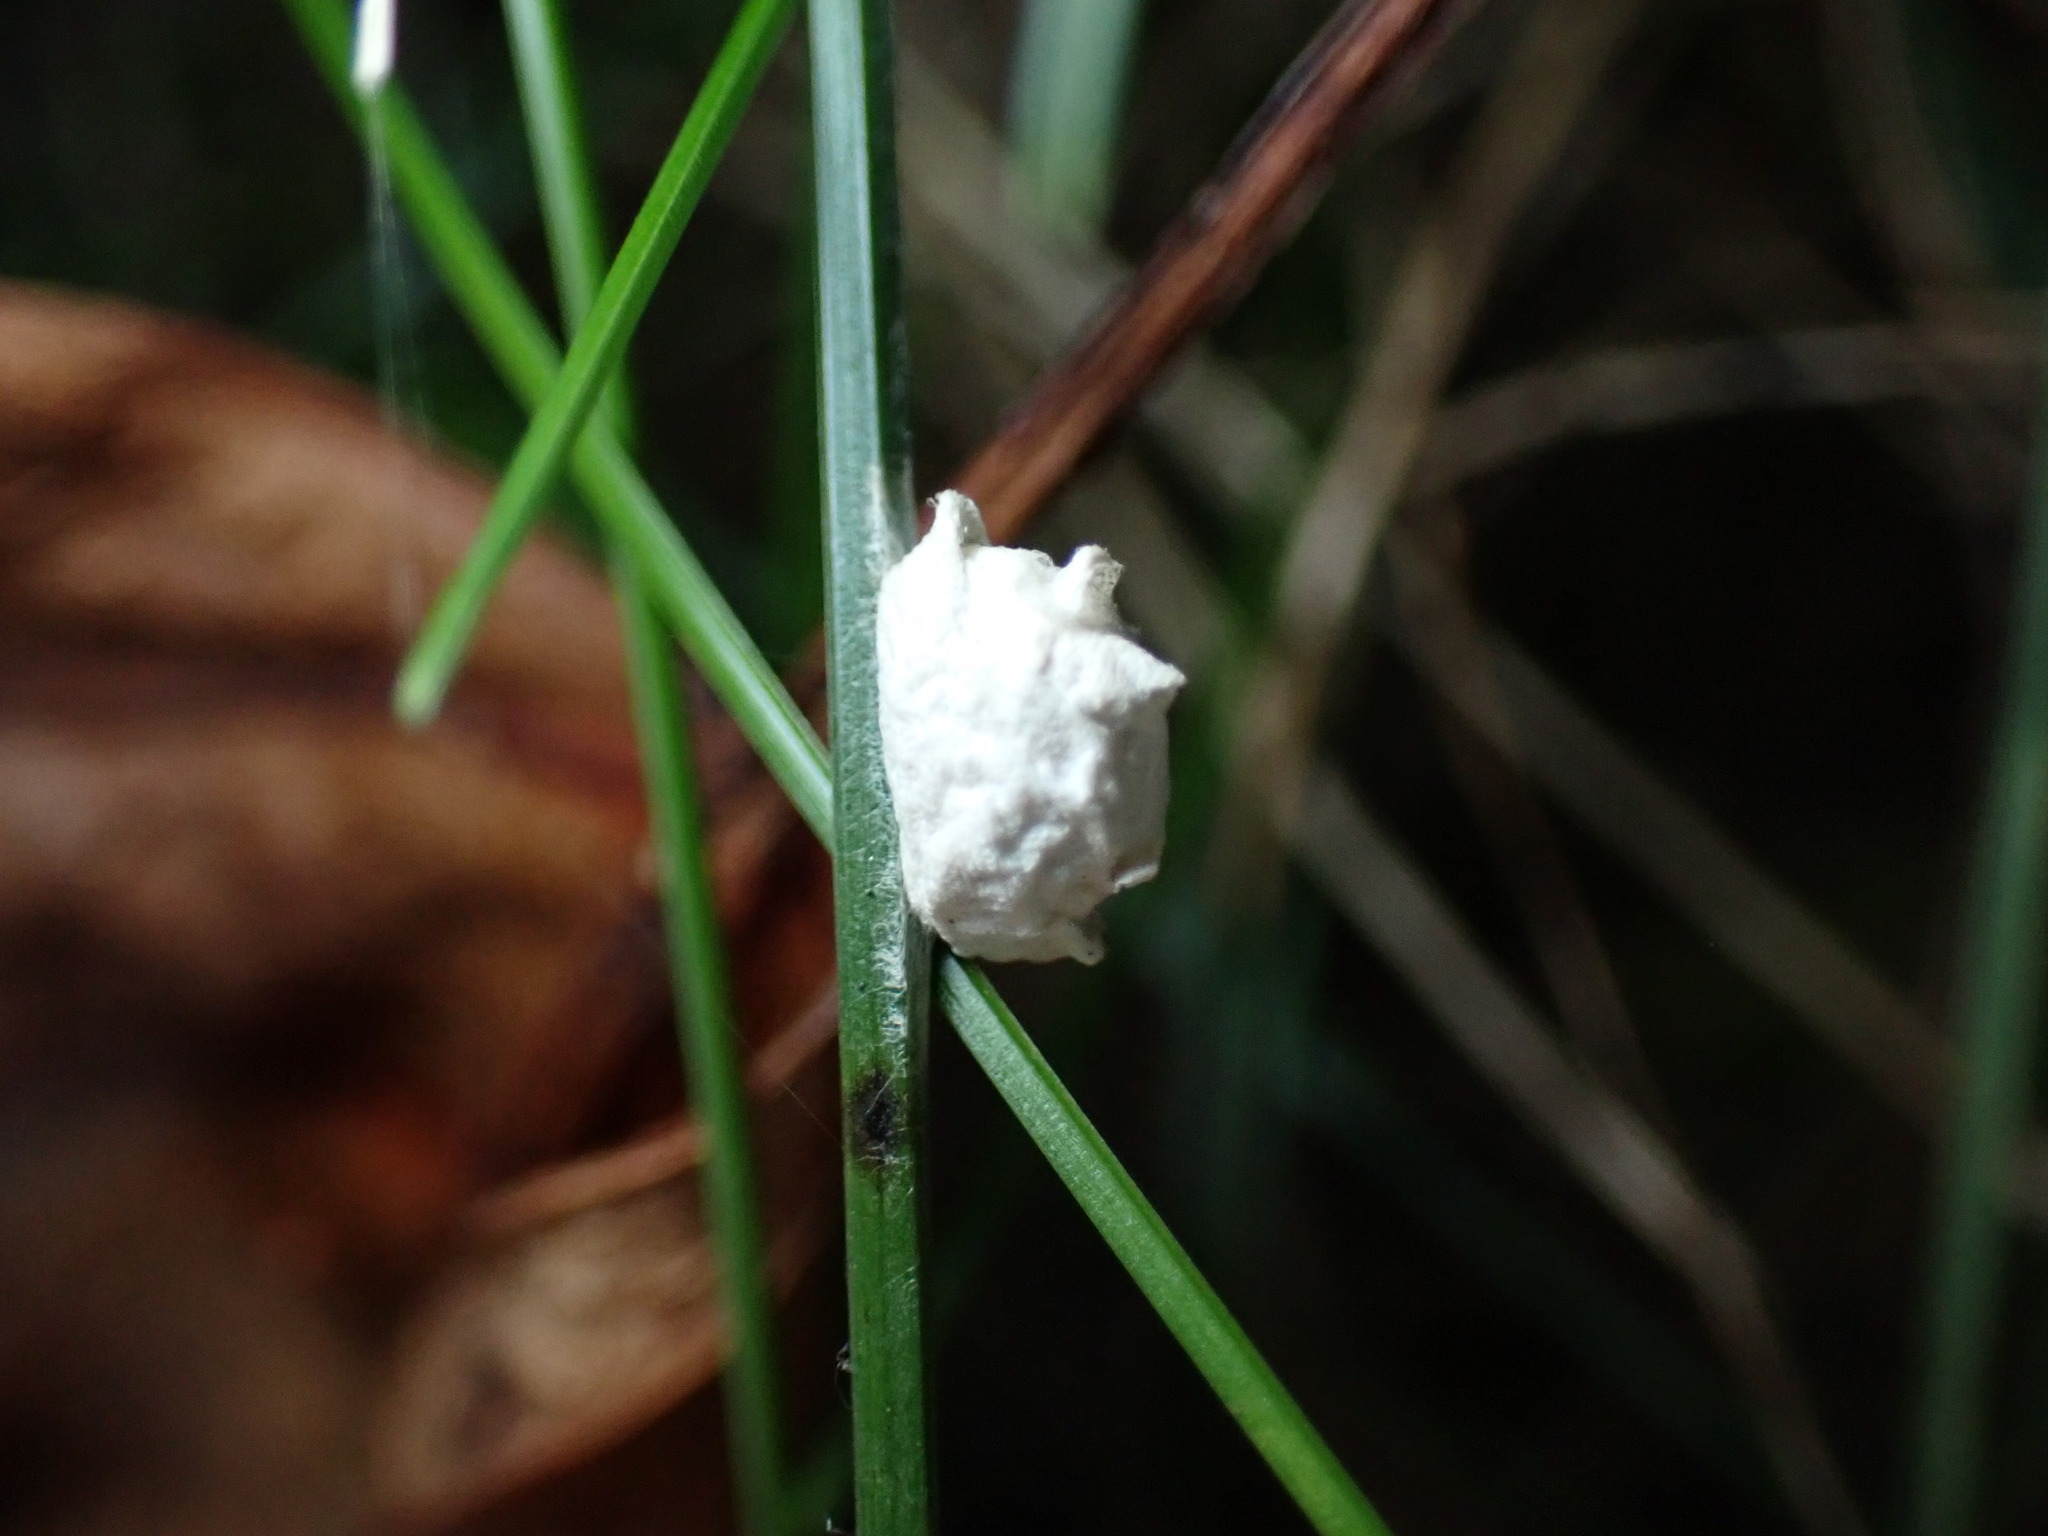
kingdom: Animalia
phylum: Arthropoda
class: Insecta
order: Lepidoptera
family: Epipyropidae
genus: Fulgoraecia
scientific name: Fulgoraecia exigua
